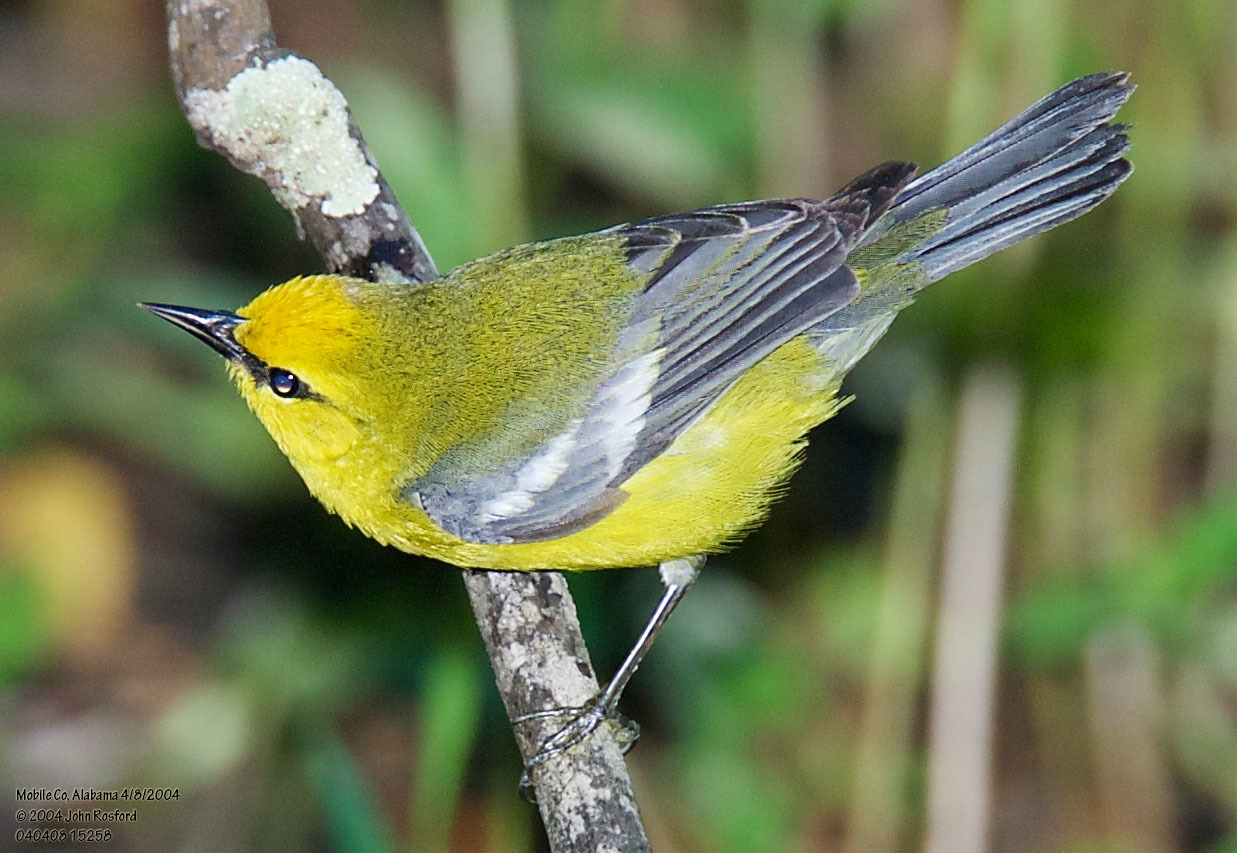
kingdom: Animalia
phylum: Chordata
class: Aves
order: Passeriformes
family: Parulidae
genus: Vermivora
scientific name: Vermivora cyanoptera
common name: Blue-winged warbler
